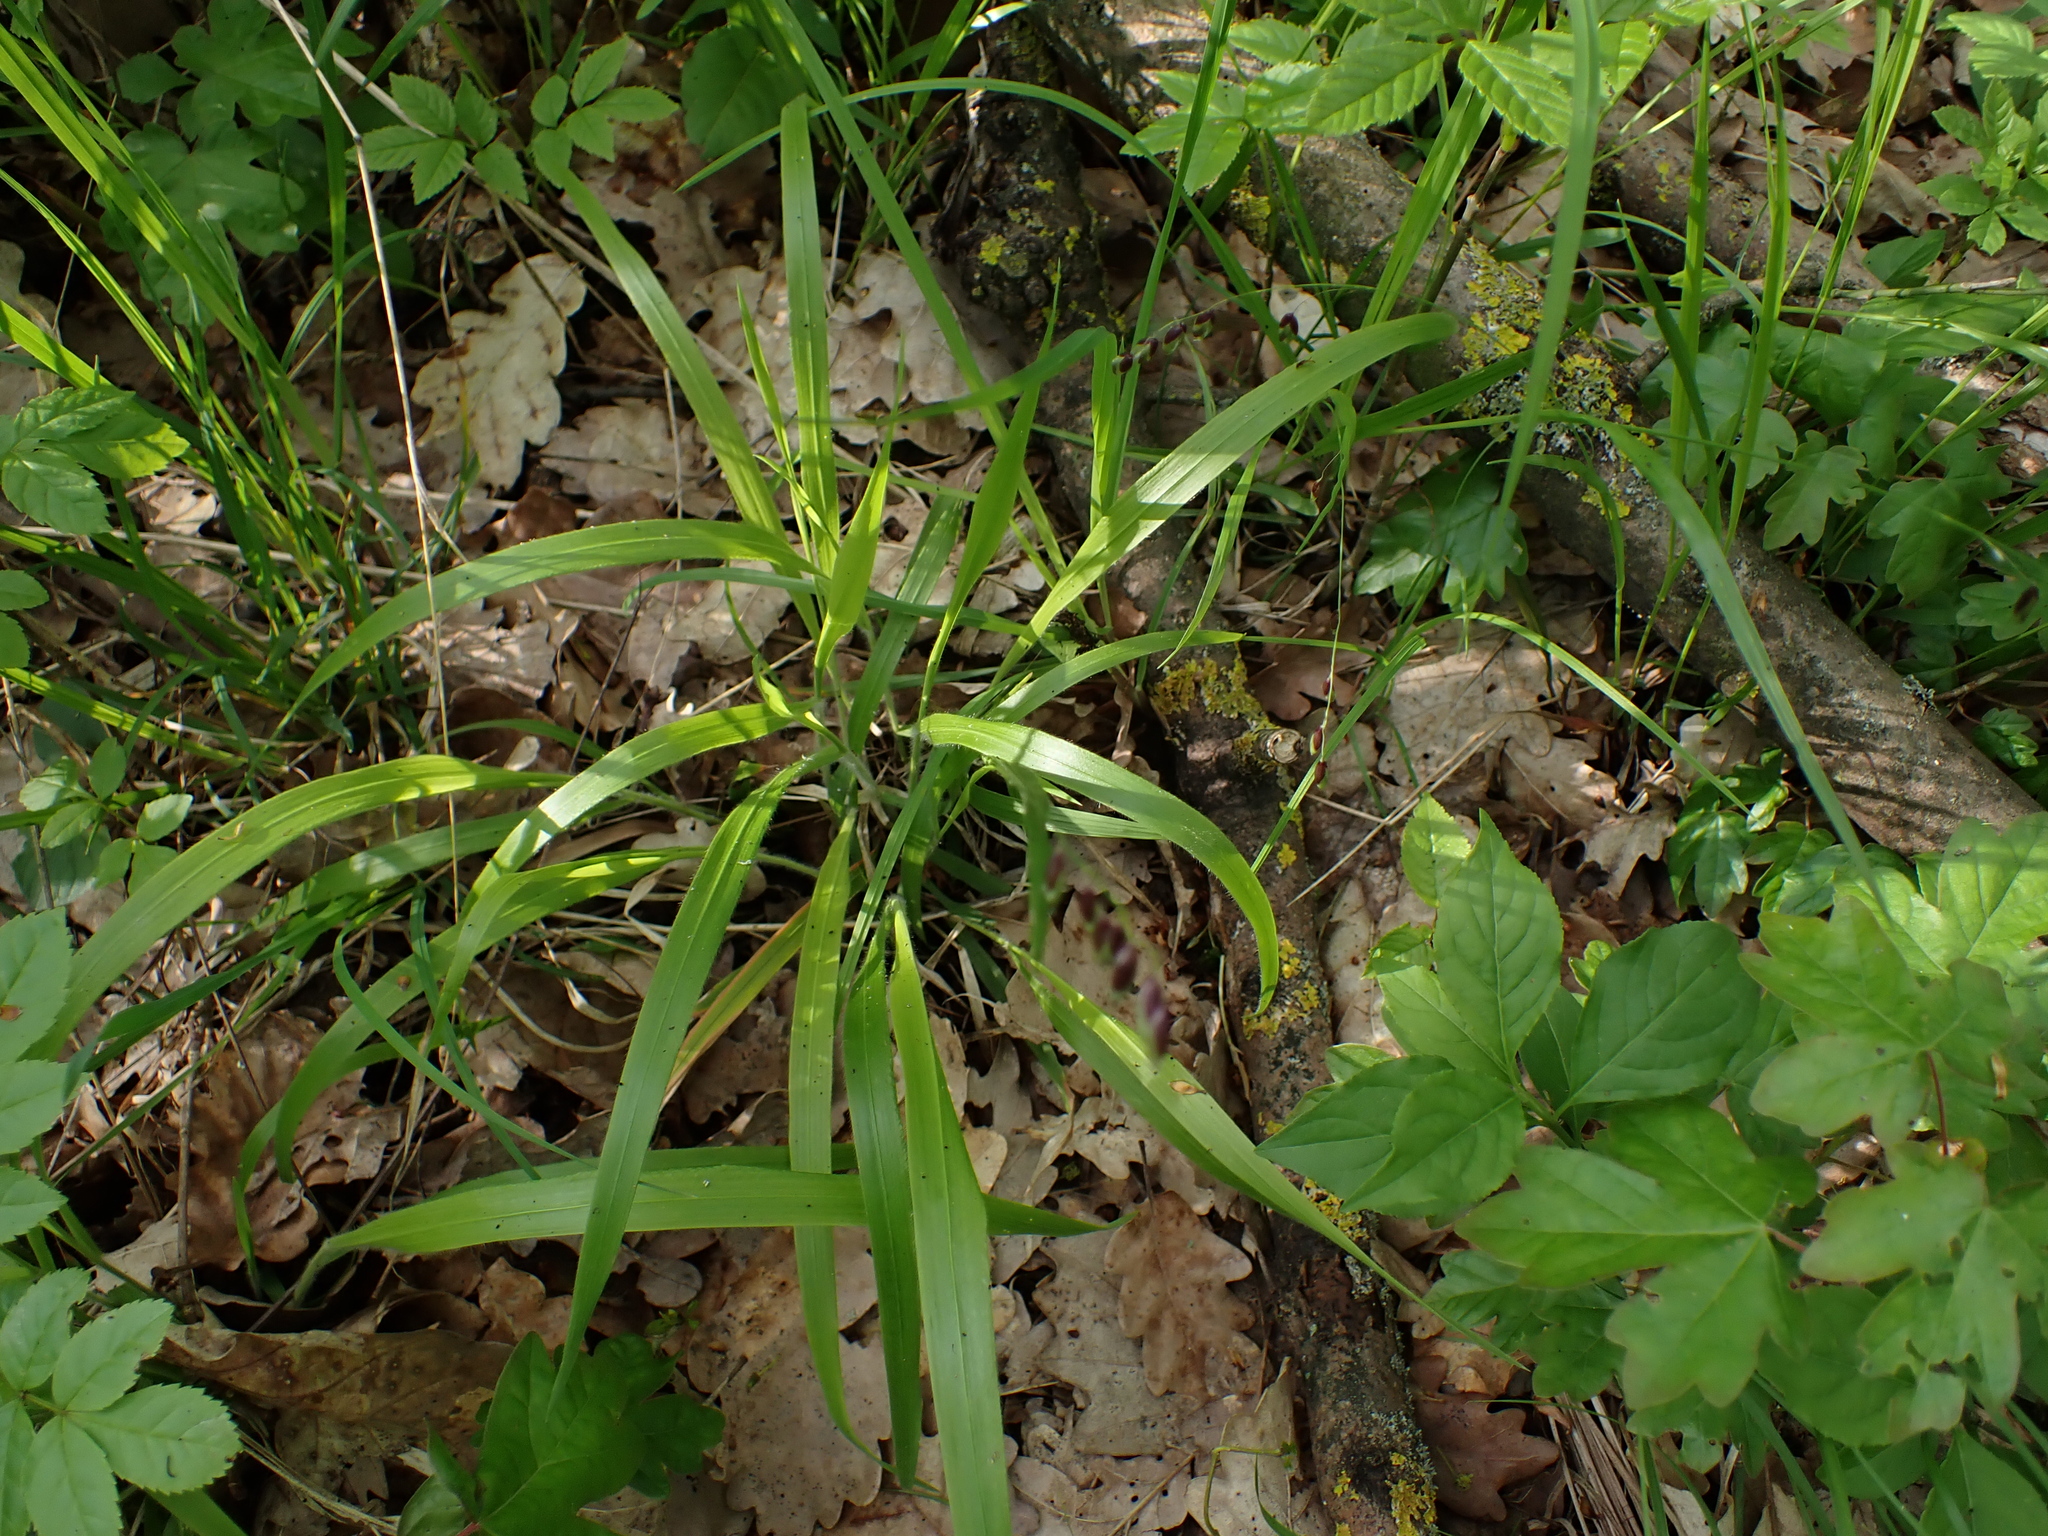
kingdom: Plantae
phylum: Tracheophyta
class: Liliopsida
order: Poales
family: Poaceae
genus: Melica
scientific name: Melica nutans
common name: Mountain melick
